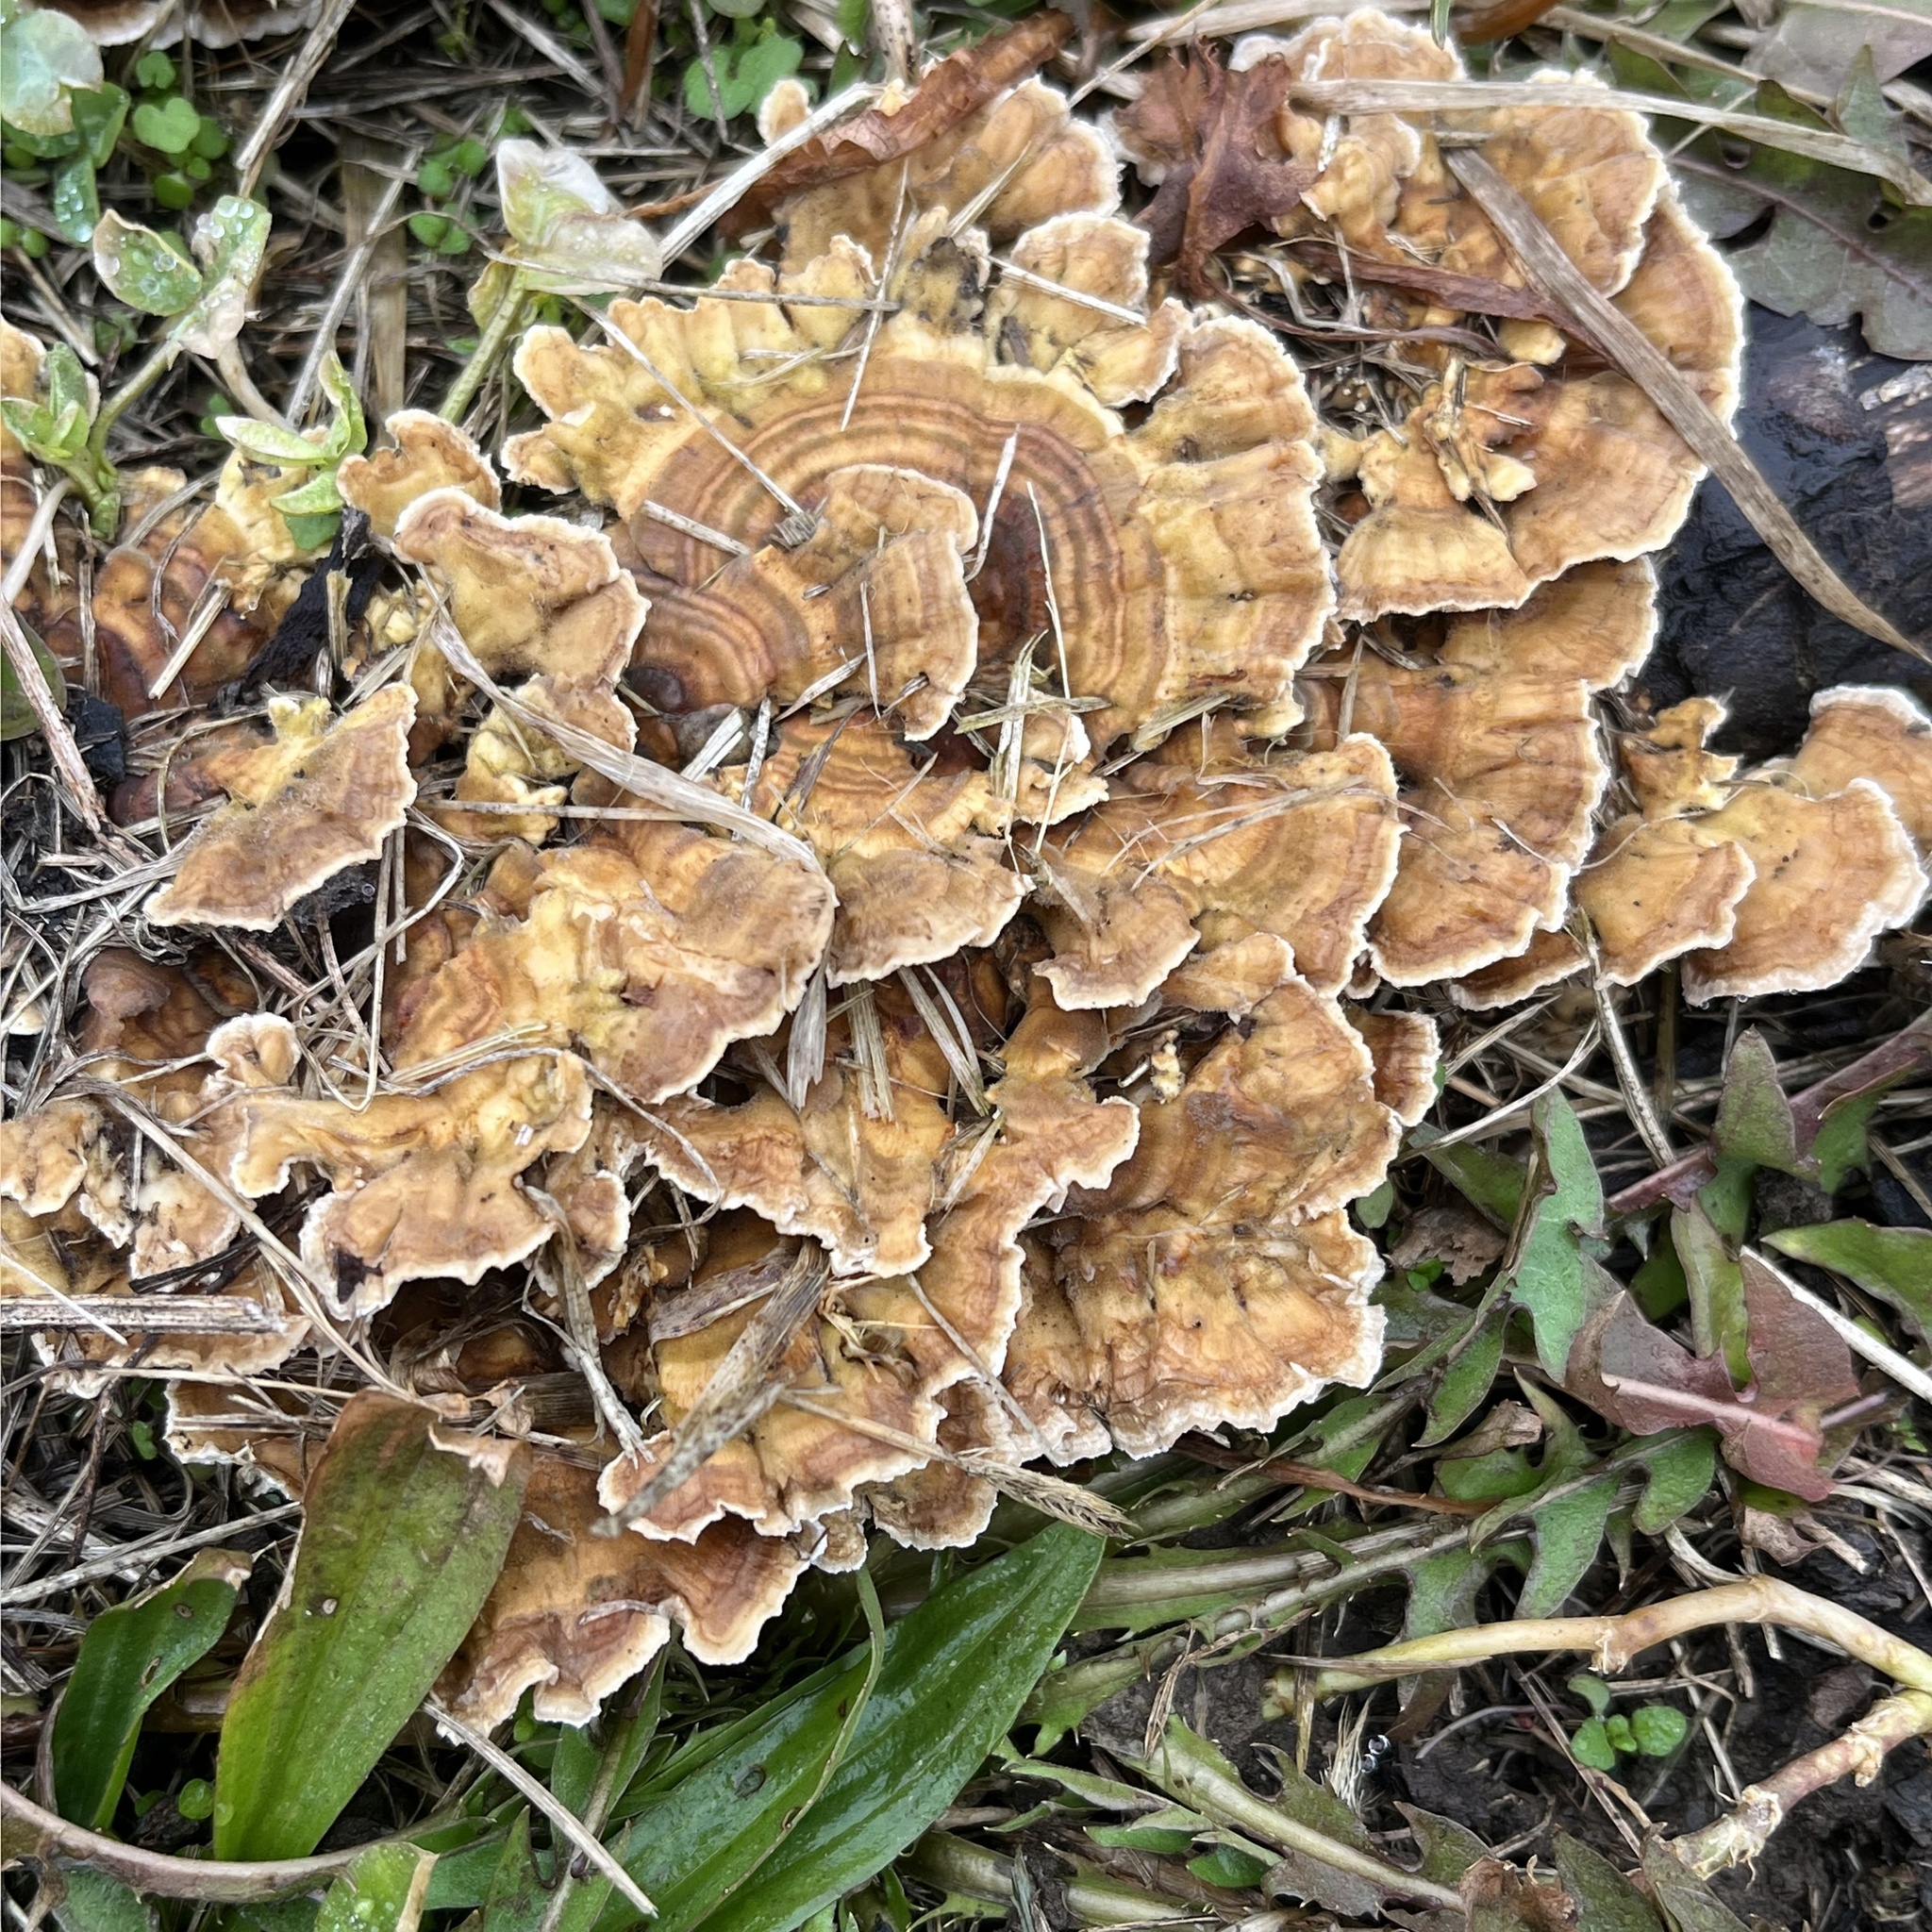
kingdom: Fungi
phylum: Basidiomycota
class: Agaricomycetes
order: Polyporales
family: Polyporaceae
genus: Trametes
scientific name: Trametes ochracea
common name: Ochre bracket
